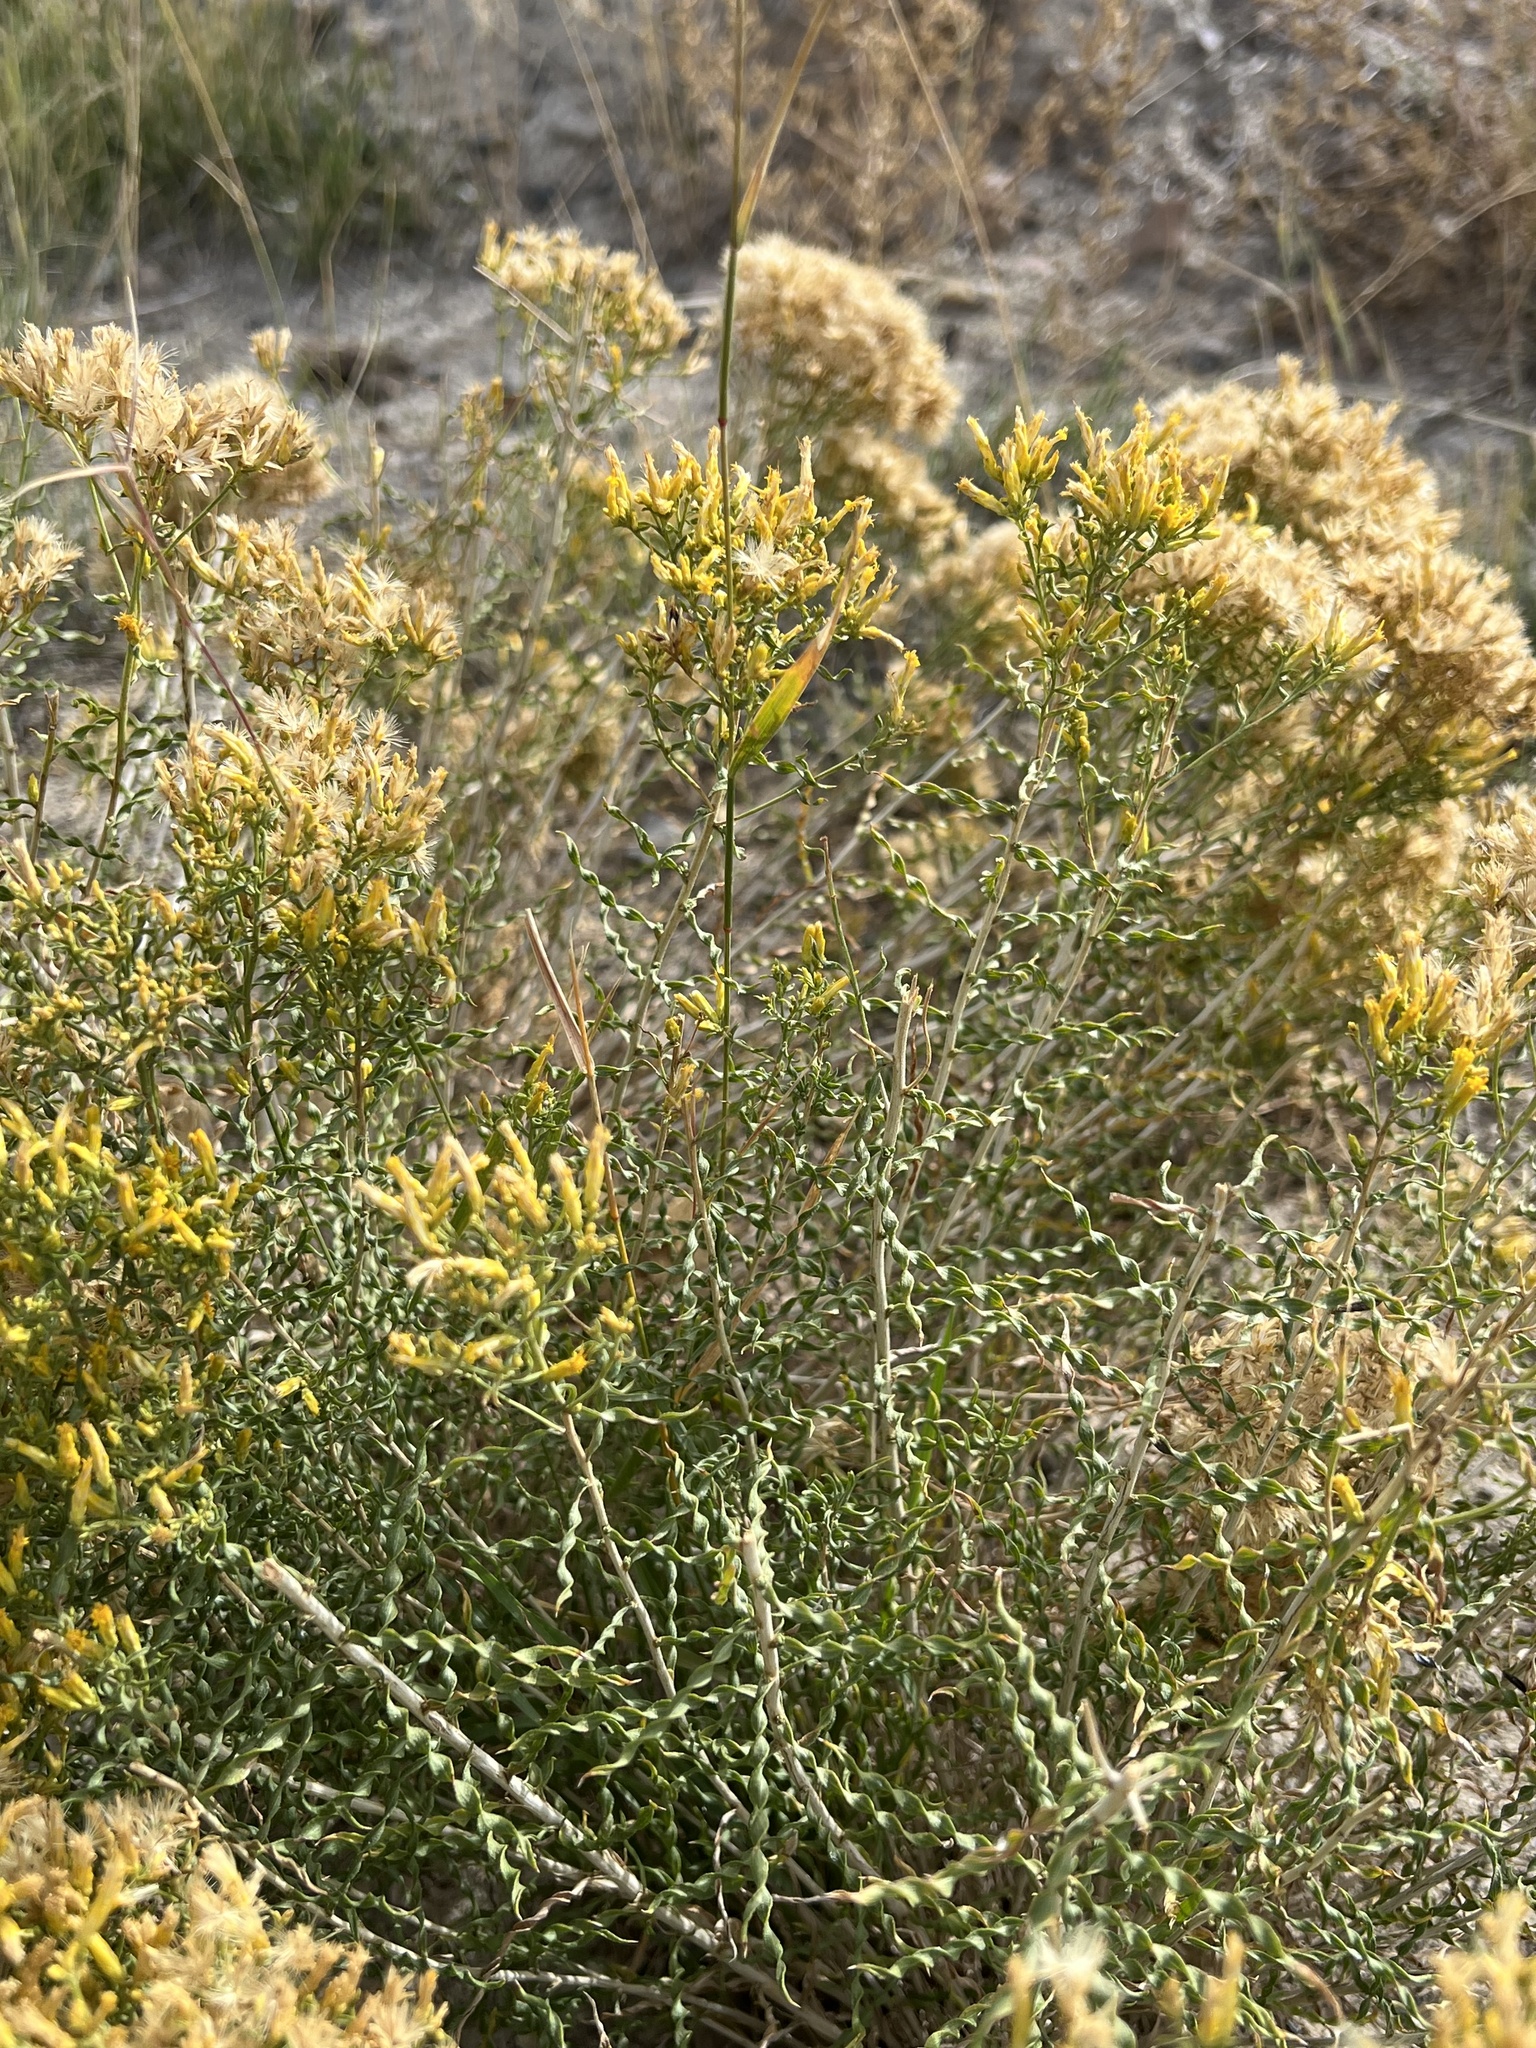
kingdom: Plantae
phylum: Tracheophyta
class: Magnoliopsida
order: Asterales
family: Asteraceae
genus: Chrysothamnus
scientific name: Chrysothamnus viscidiflorus
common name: Yellow rabbitbrush
